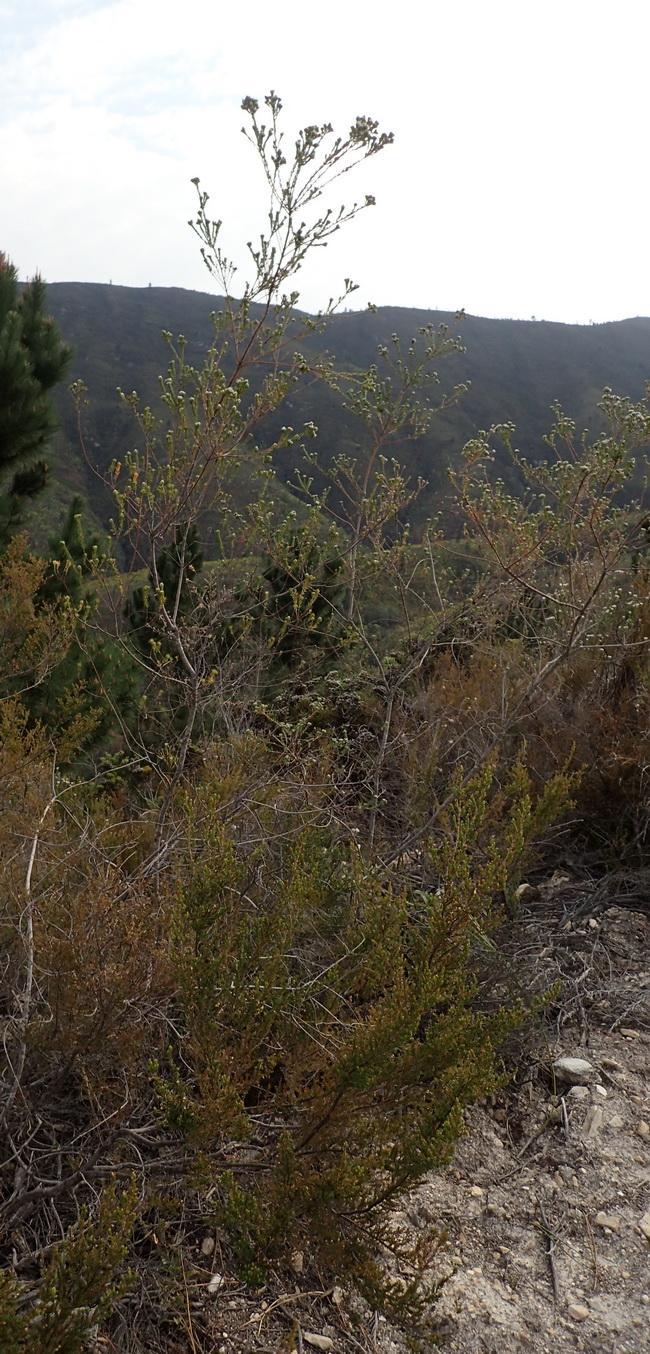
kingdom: Plantae
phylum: Tracheophyta
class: Magnoliopsida
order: Rosales
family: Rhamnaceae
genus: Phylica
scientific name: Phylica purpurea
